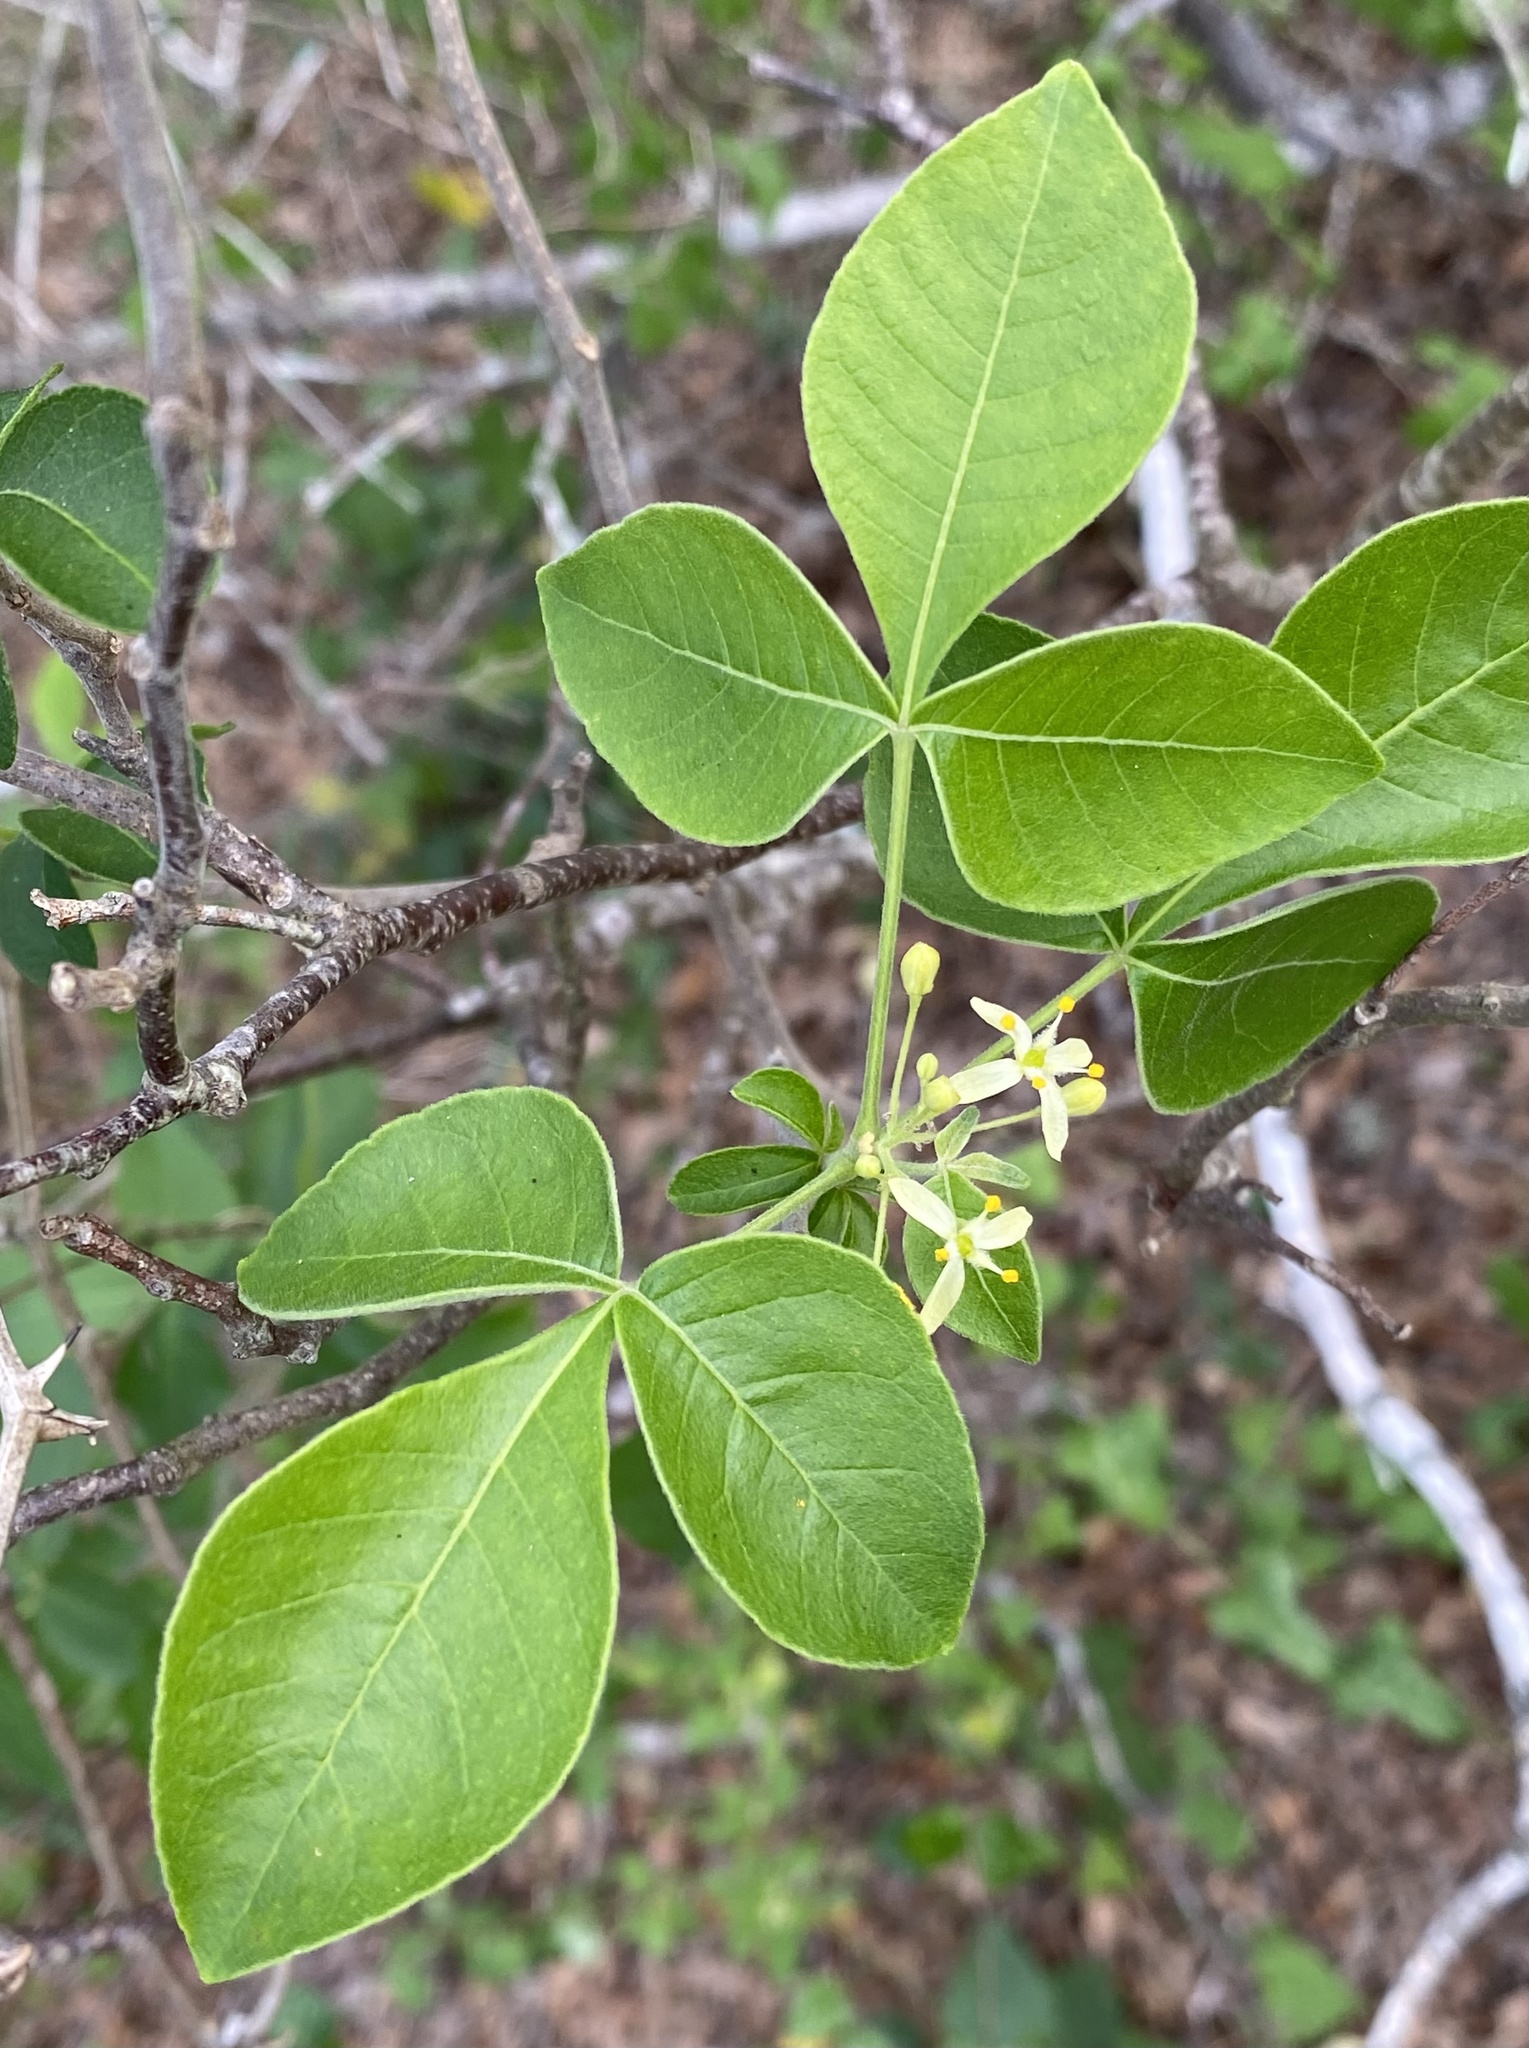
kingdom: Plantae
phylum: Tracheophyta
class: Magnoliopsida
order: Sapindales
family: Rutaceae
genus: Ptelea
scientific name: Ptelea trifoliata
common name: Common hop-tree
